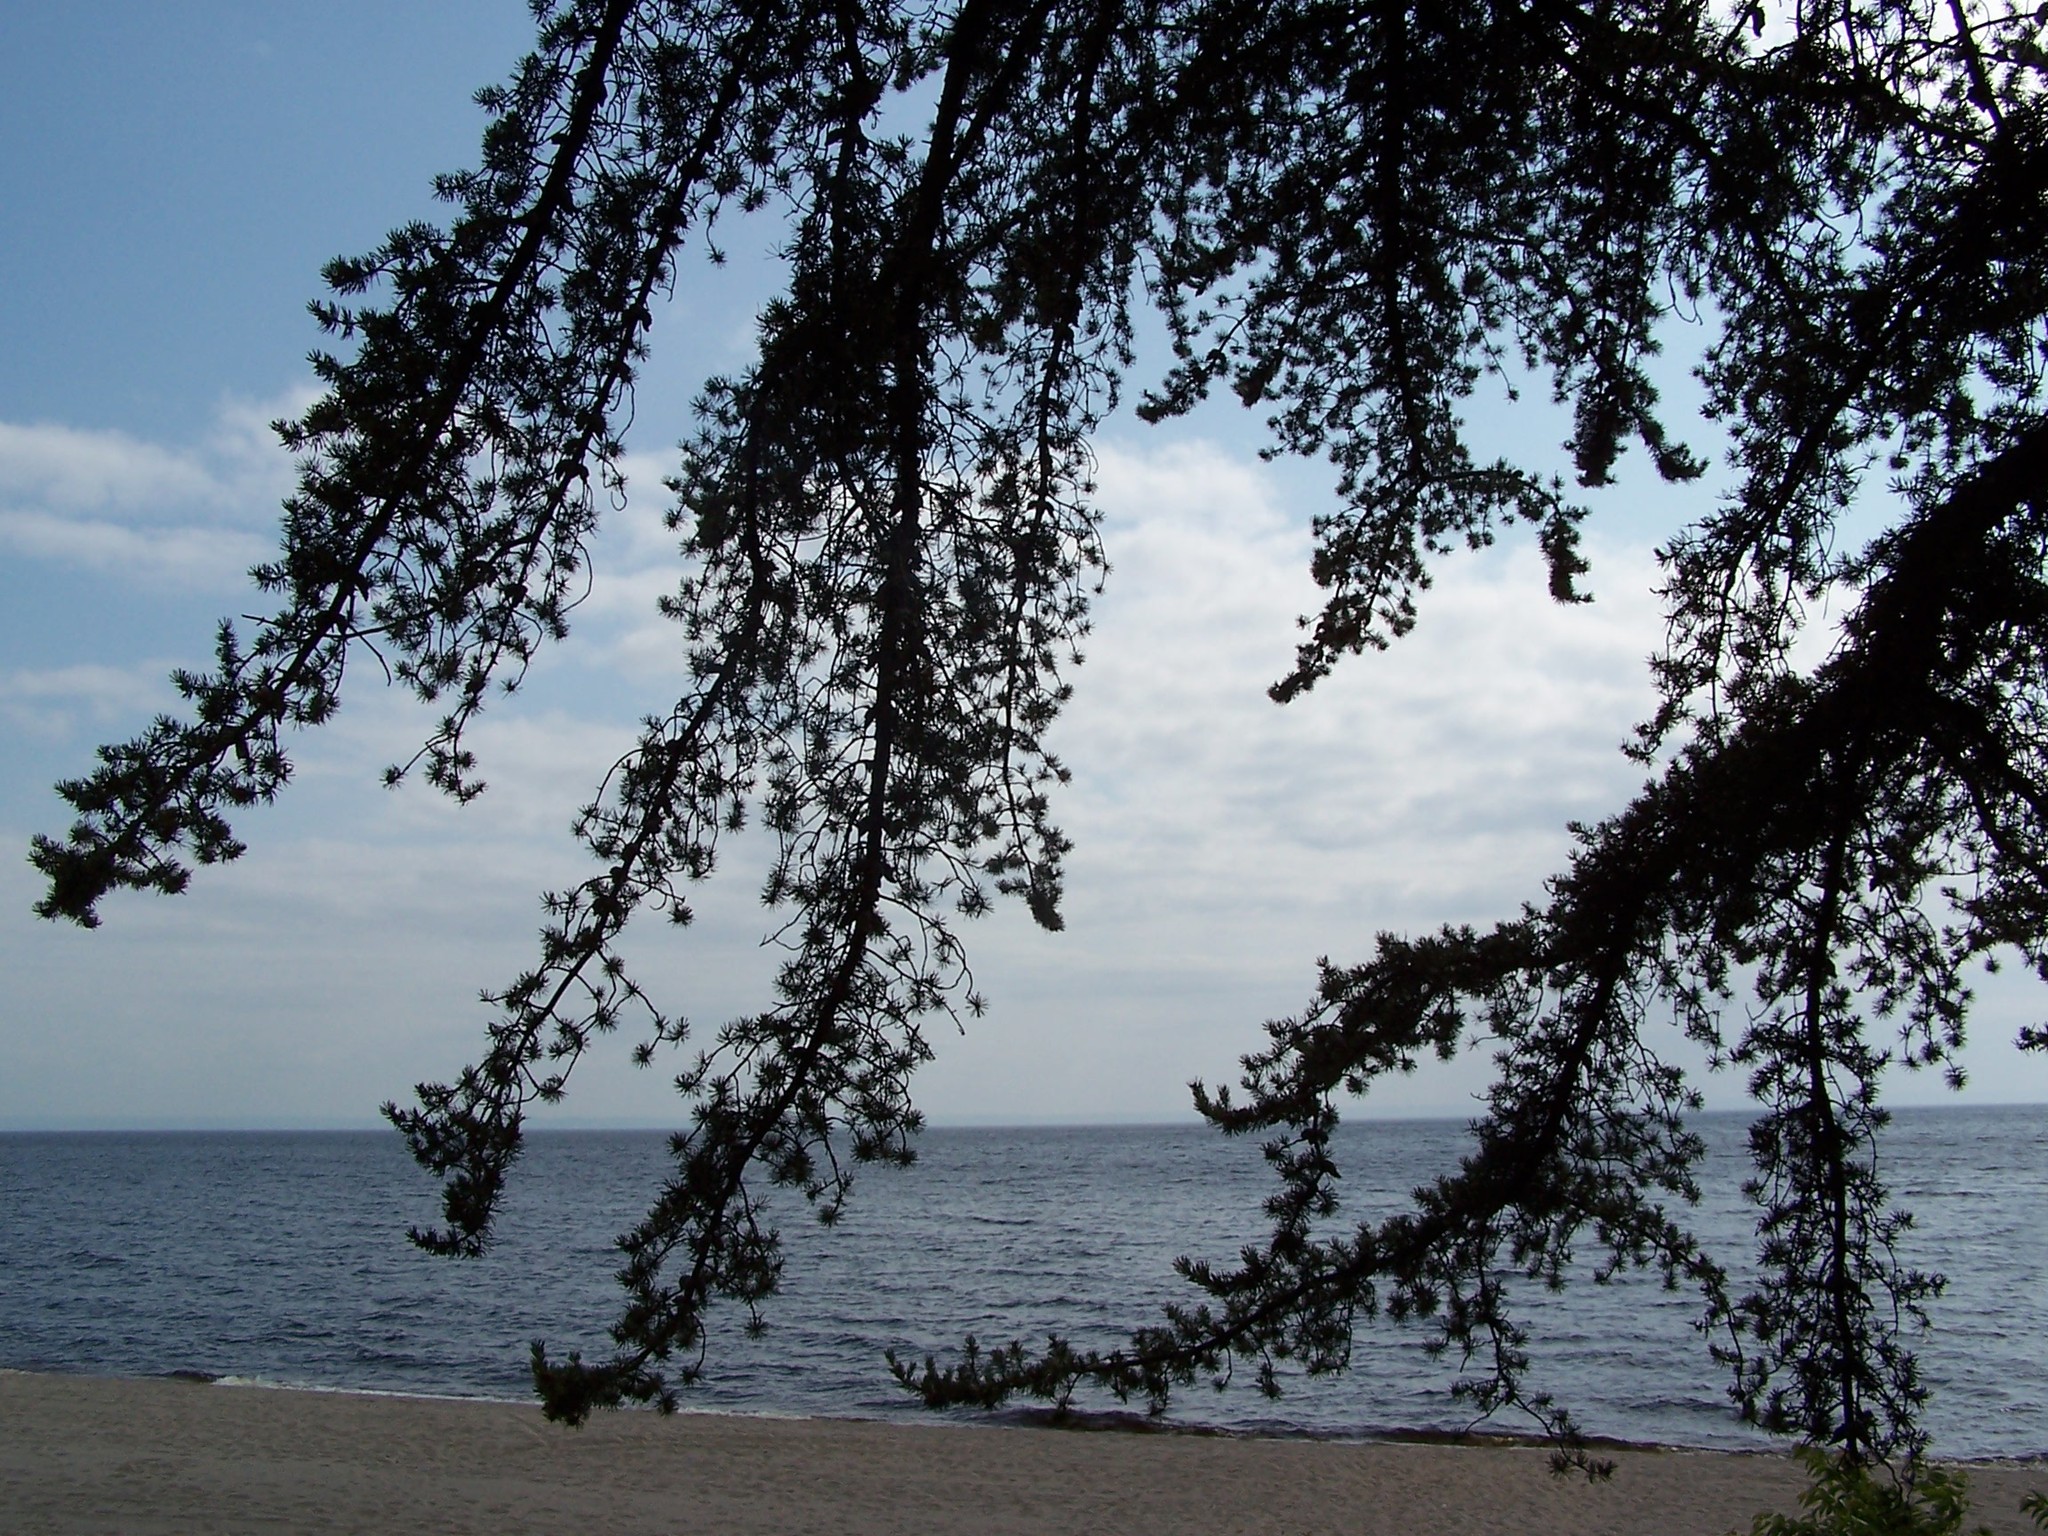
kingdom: Plantae
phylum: Tracheophyta
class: Pinopsida
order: Pinales
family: Pinaceae
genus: Pinus
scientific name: Pinus banksiana
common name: Jack pine
